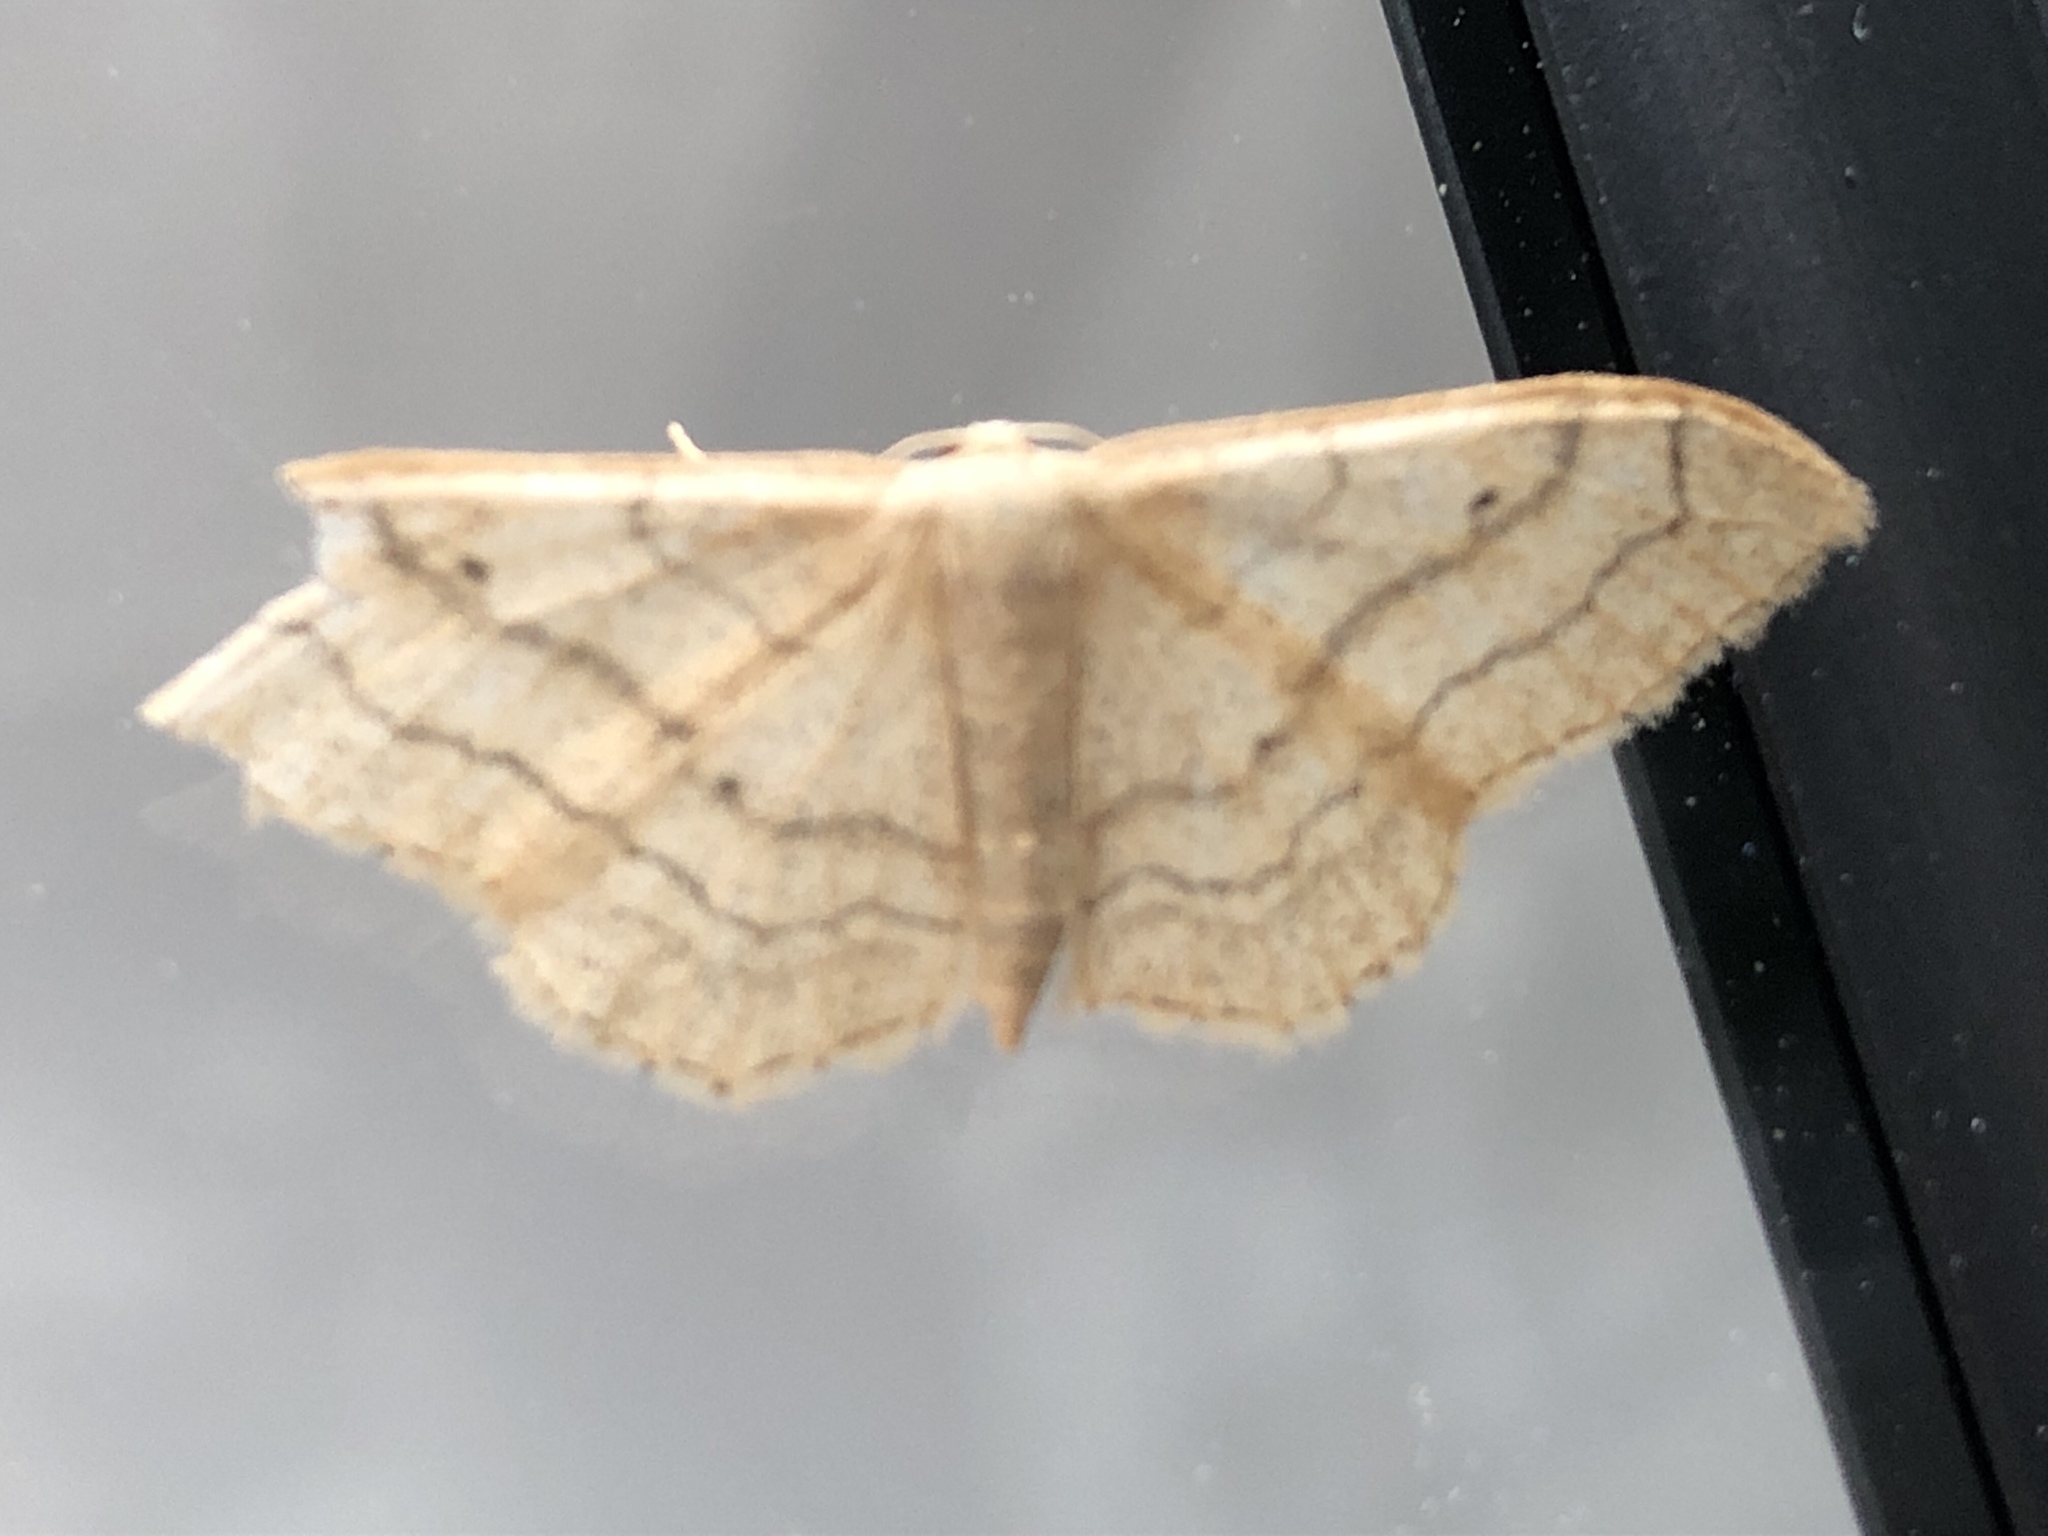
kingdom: Animalia
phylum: Arthropoda
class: Insecta
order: Lepidoptera
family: Geometridae
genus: Idaea
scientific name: Idaea aversata
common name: Riband wave
